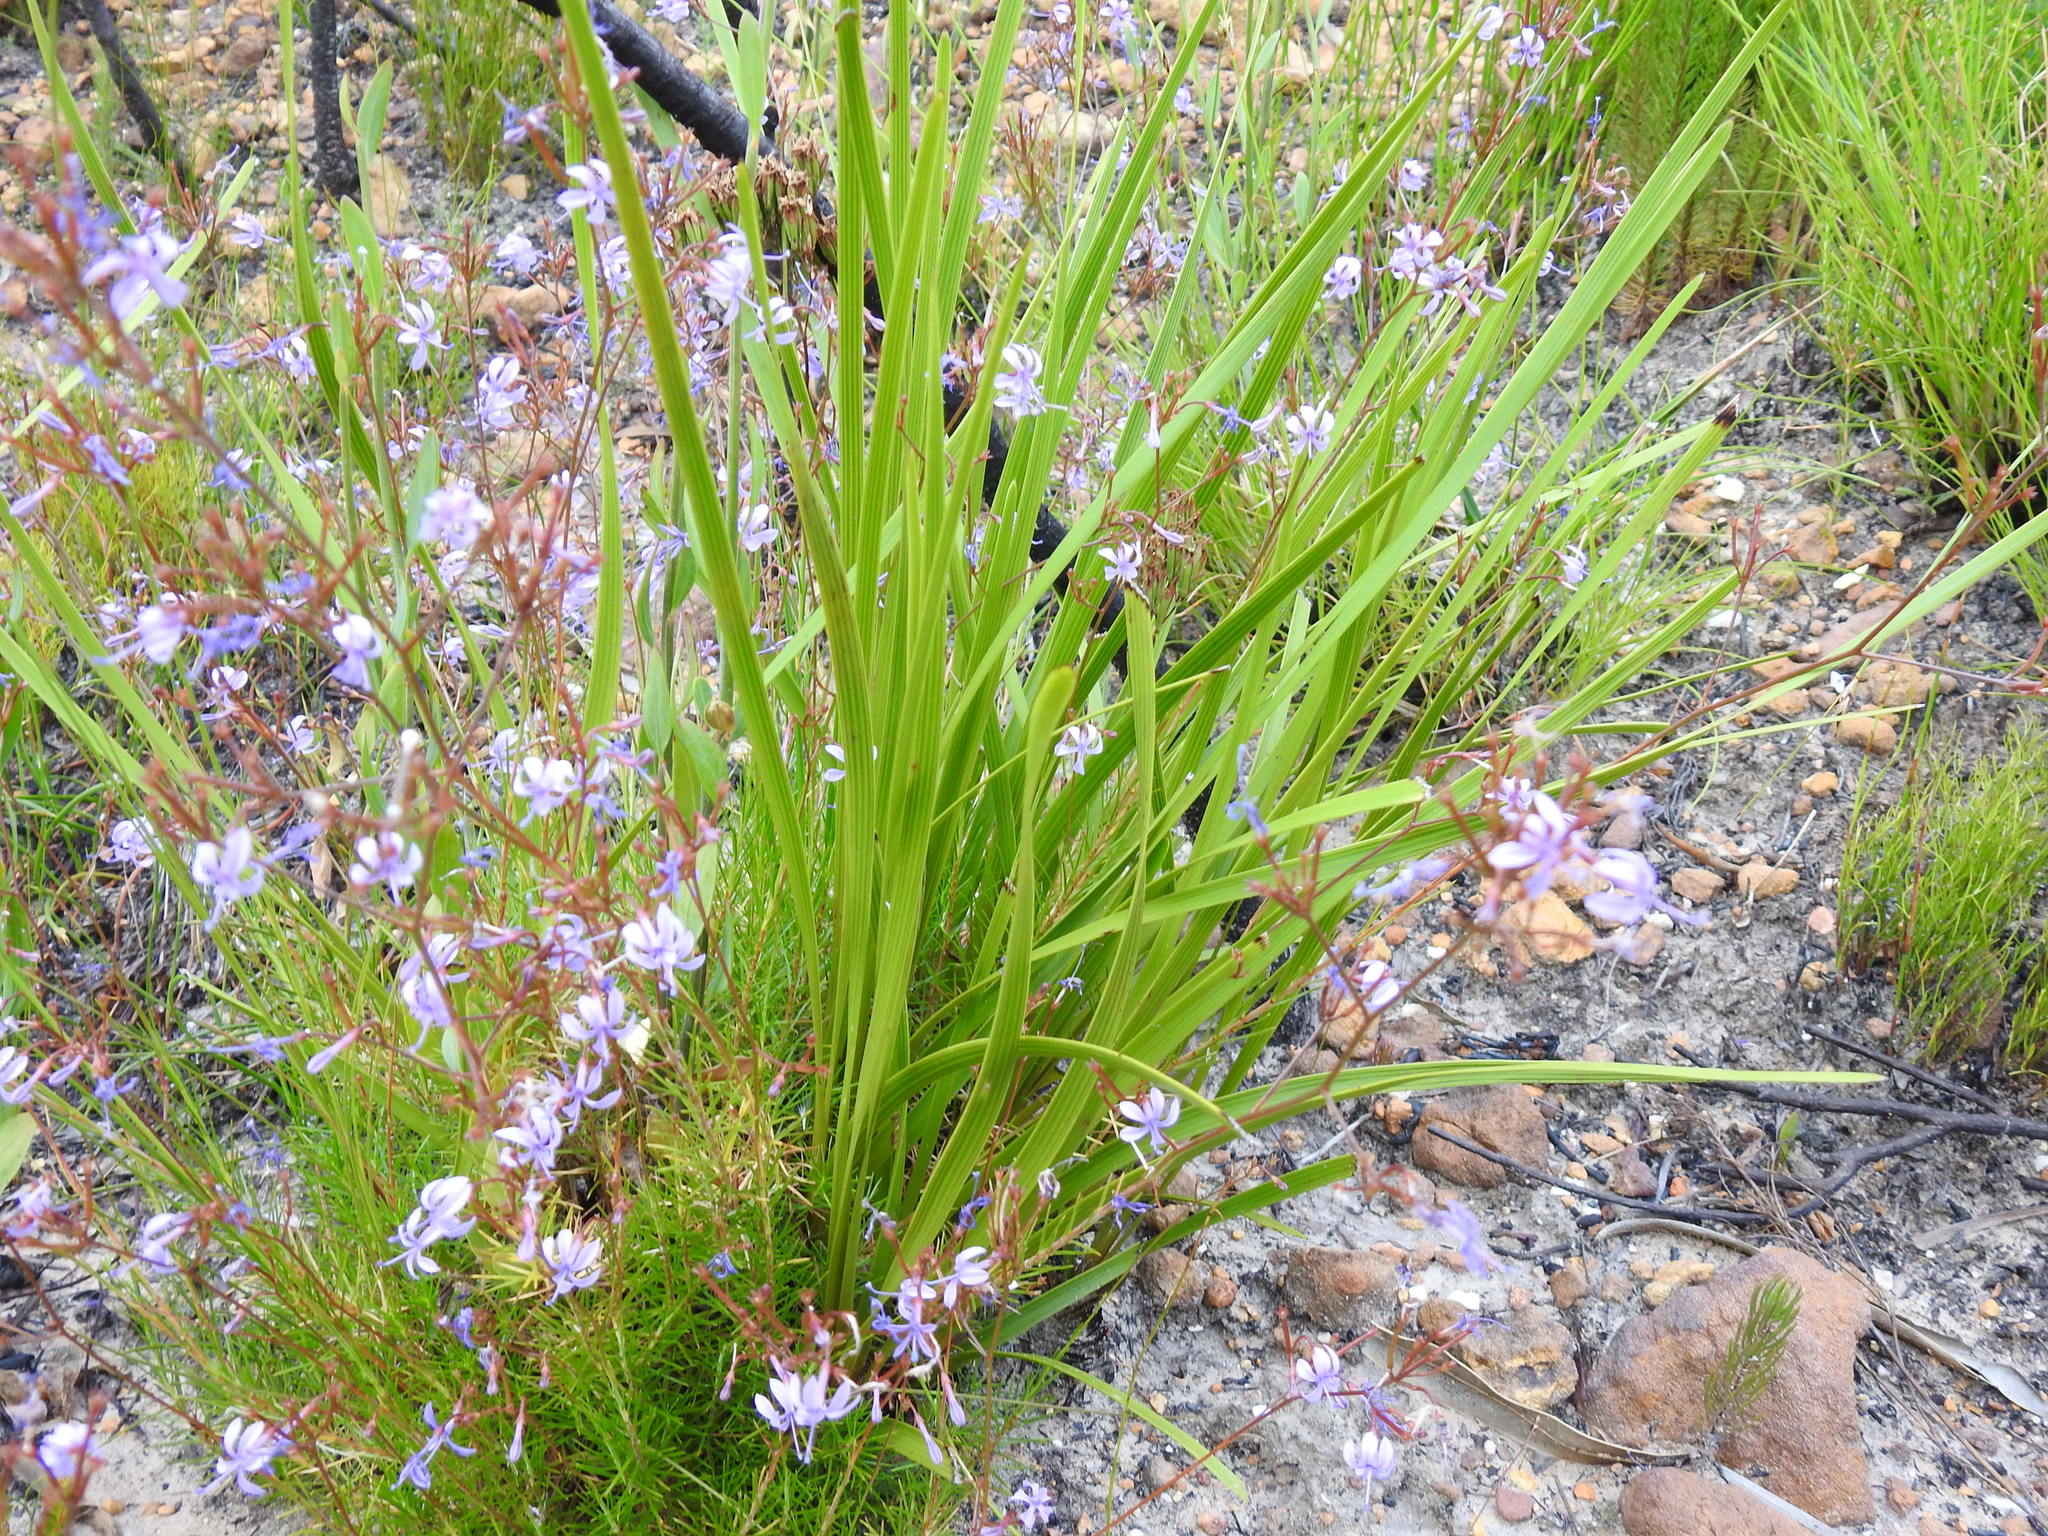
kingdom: Plantae
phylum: Tracheophyta
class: Magnoliopsida
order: Asterales
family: Campanulaceae
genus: Prismatocarpus
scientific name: Prismatocarpus diffusus
